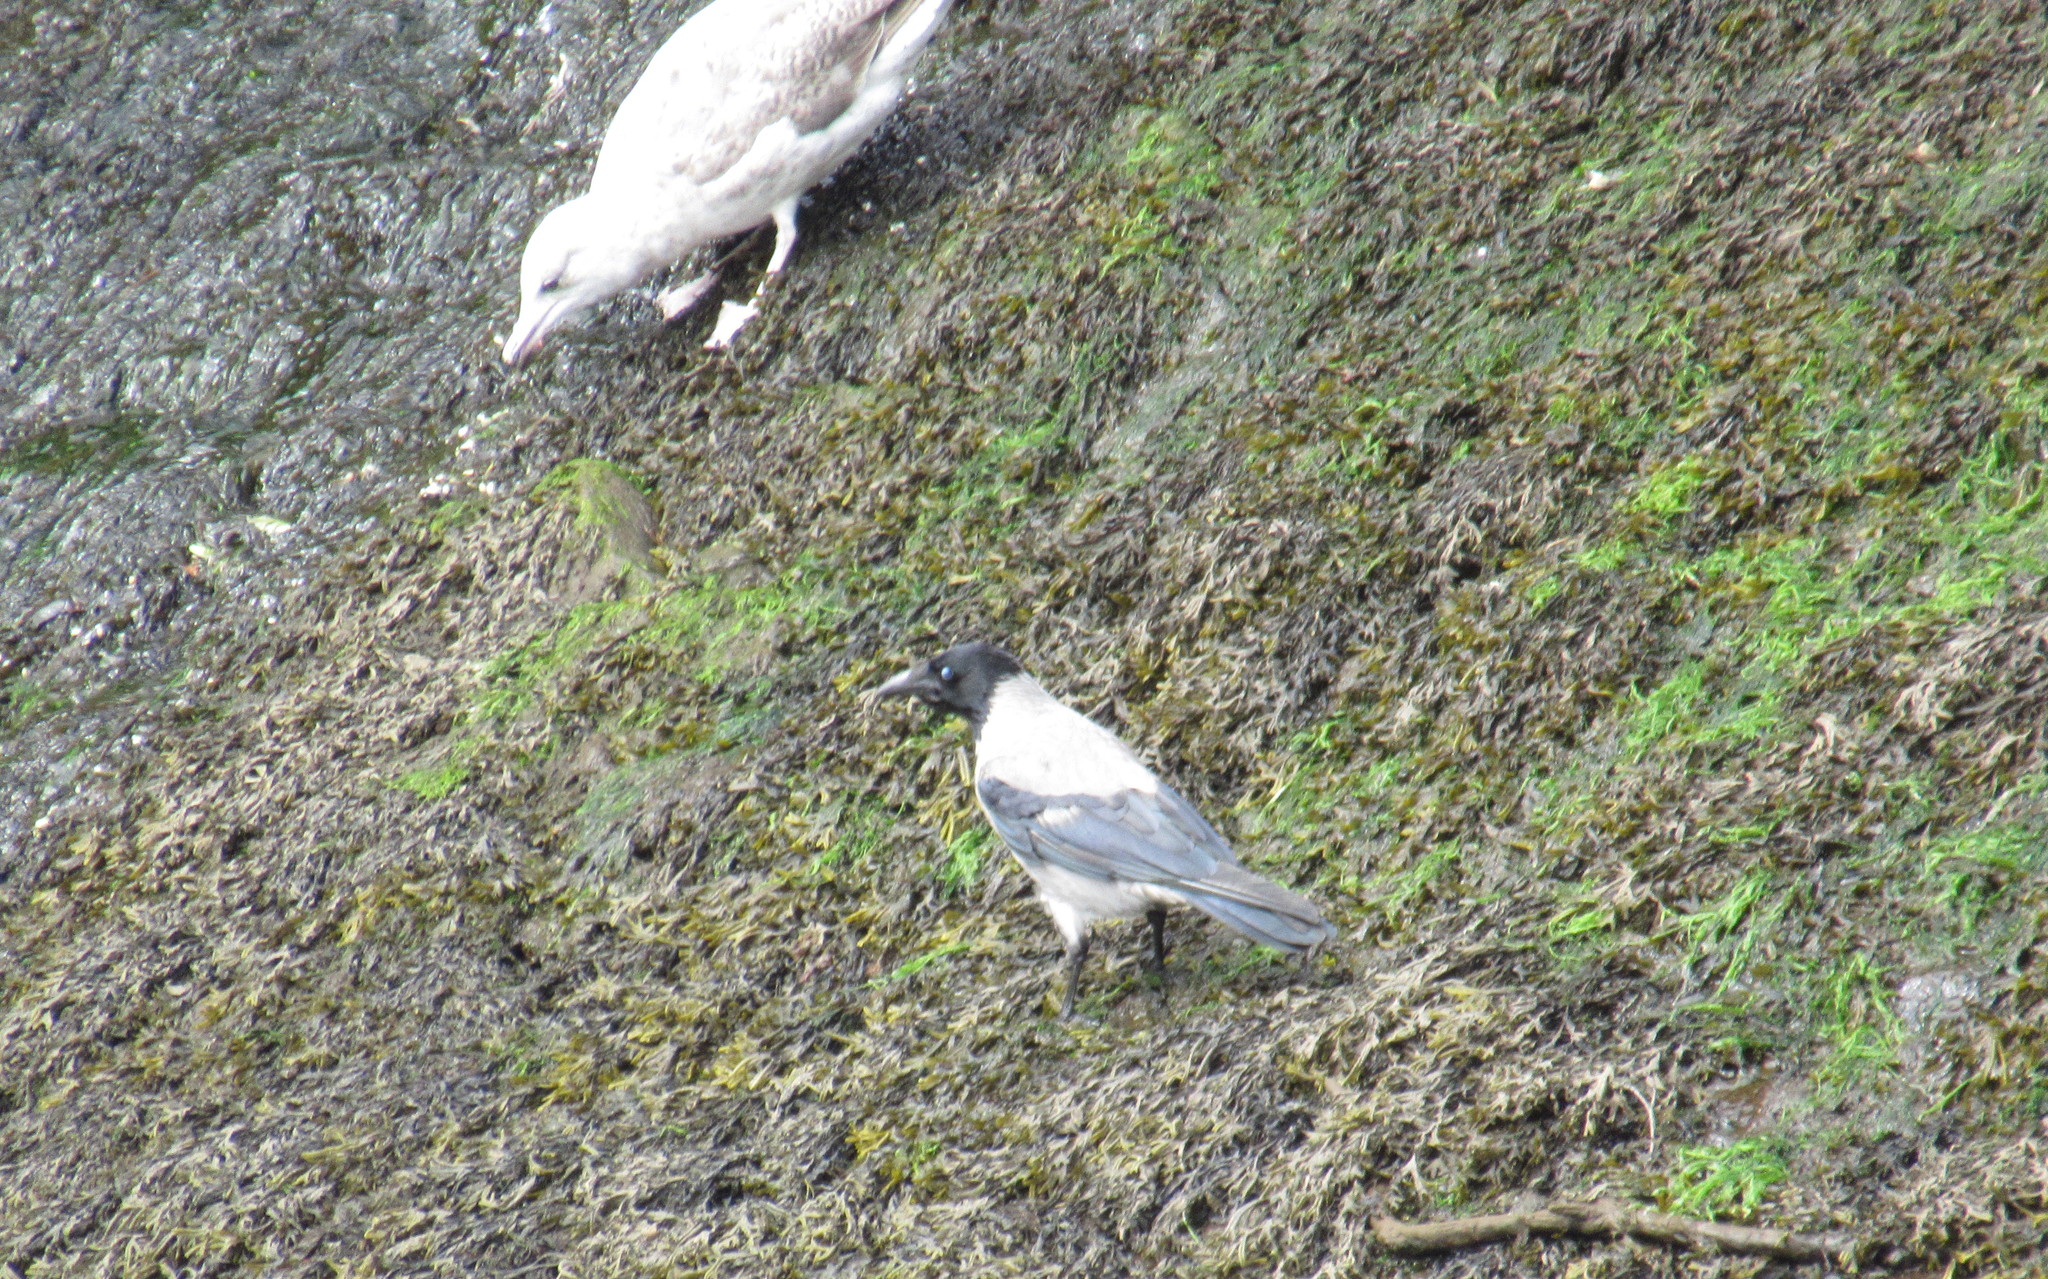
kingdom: Animalia
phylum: Chordata
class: Aves
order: Passeriformes
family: Corvidae
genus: Corvus
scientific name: Corvus cornix
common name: Hooded crow
